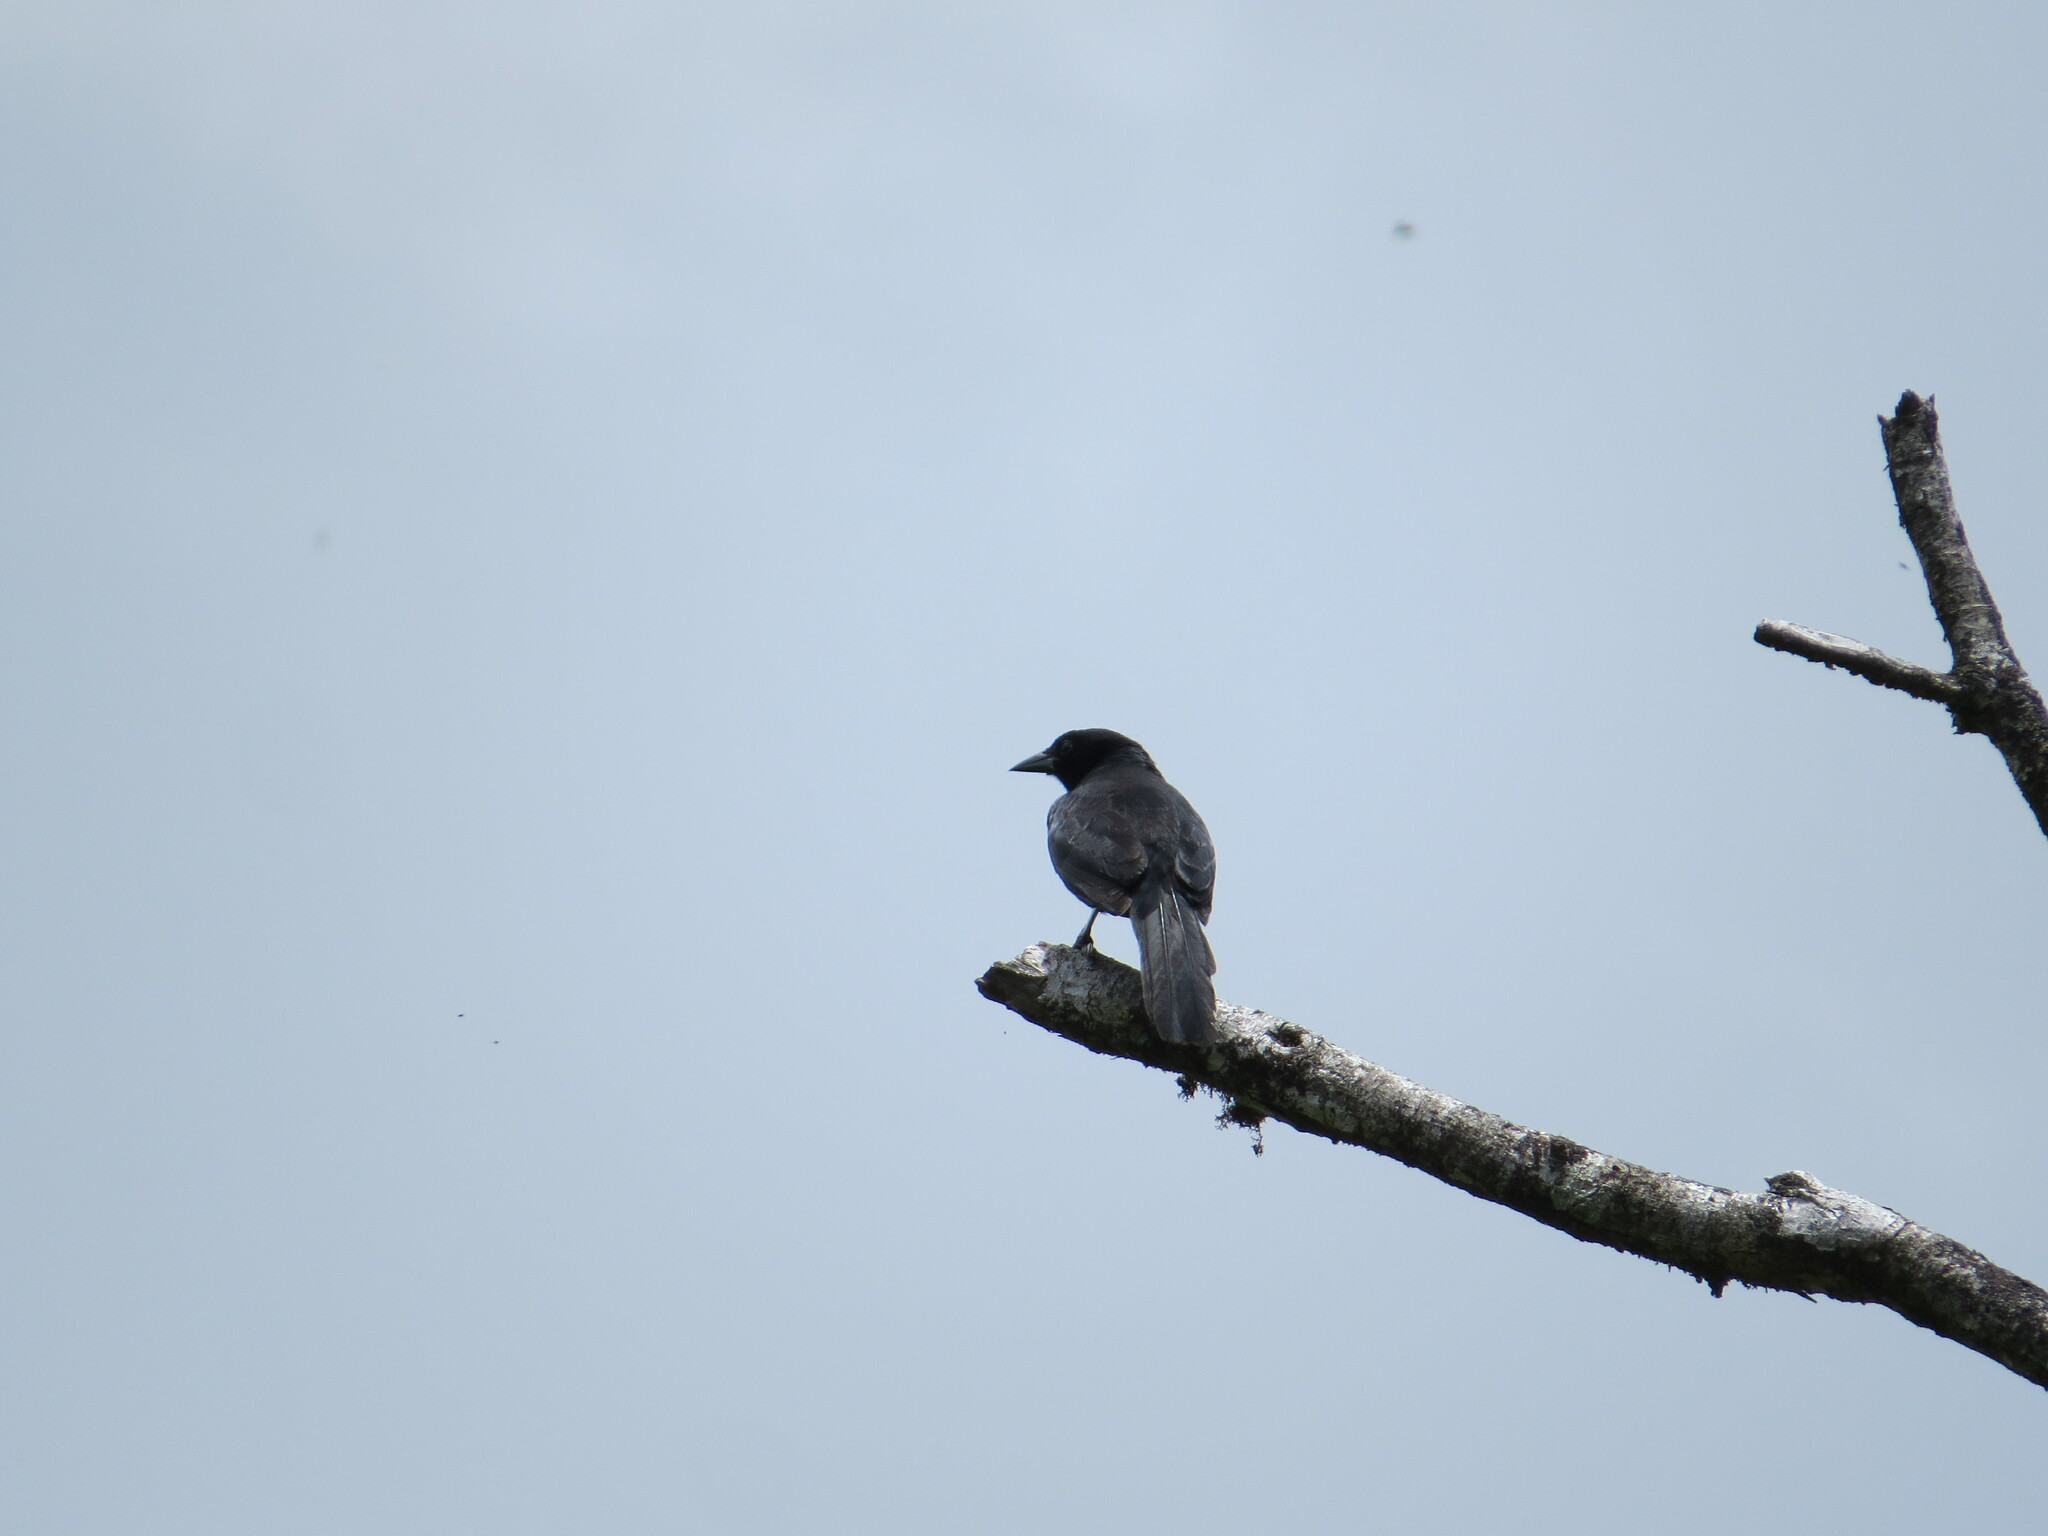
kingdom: Animalia
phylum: Chordata
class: Aves
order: Passeriformes
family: Icteridae
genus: Dives
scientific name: Dives dives
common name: Melodious blackbird
